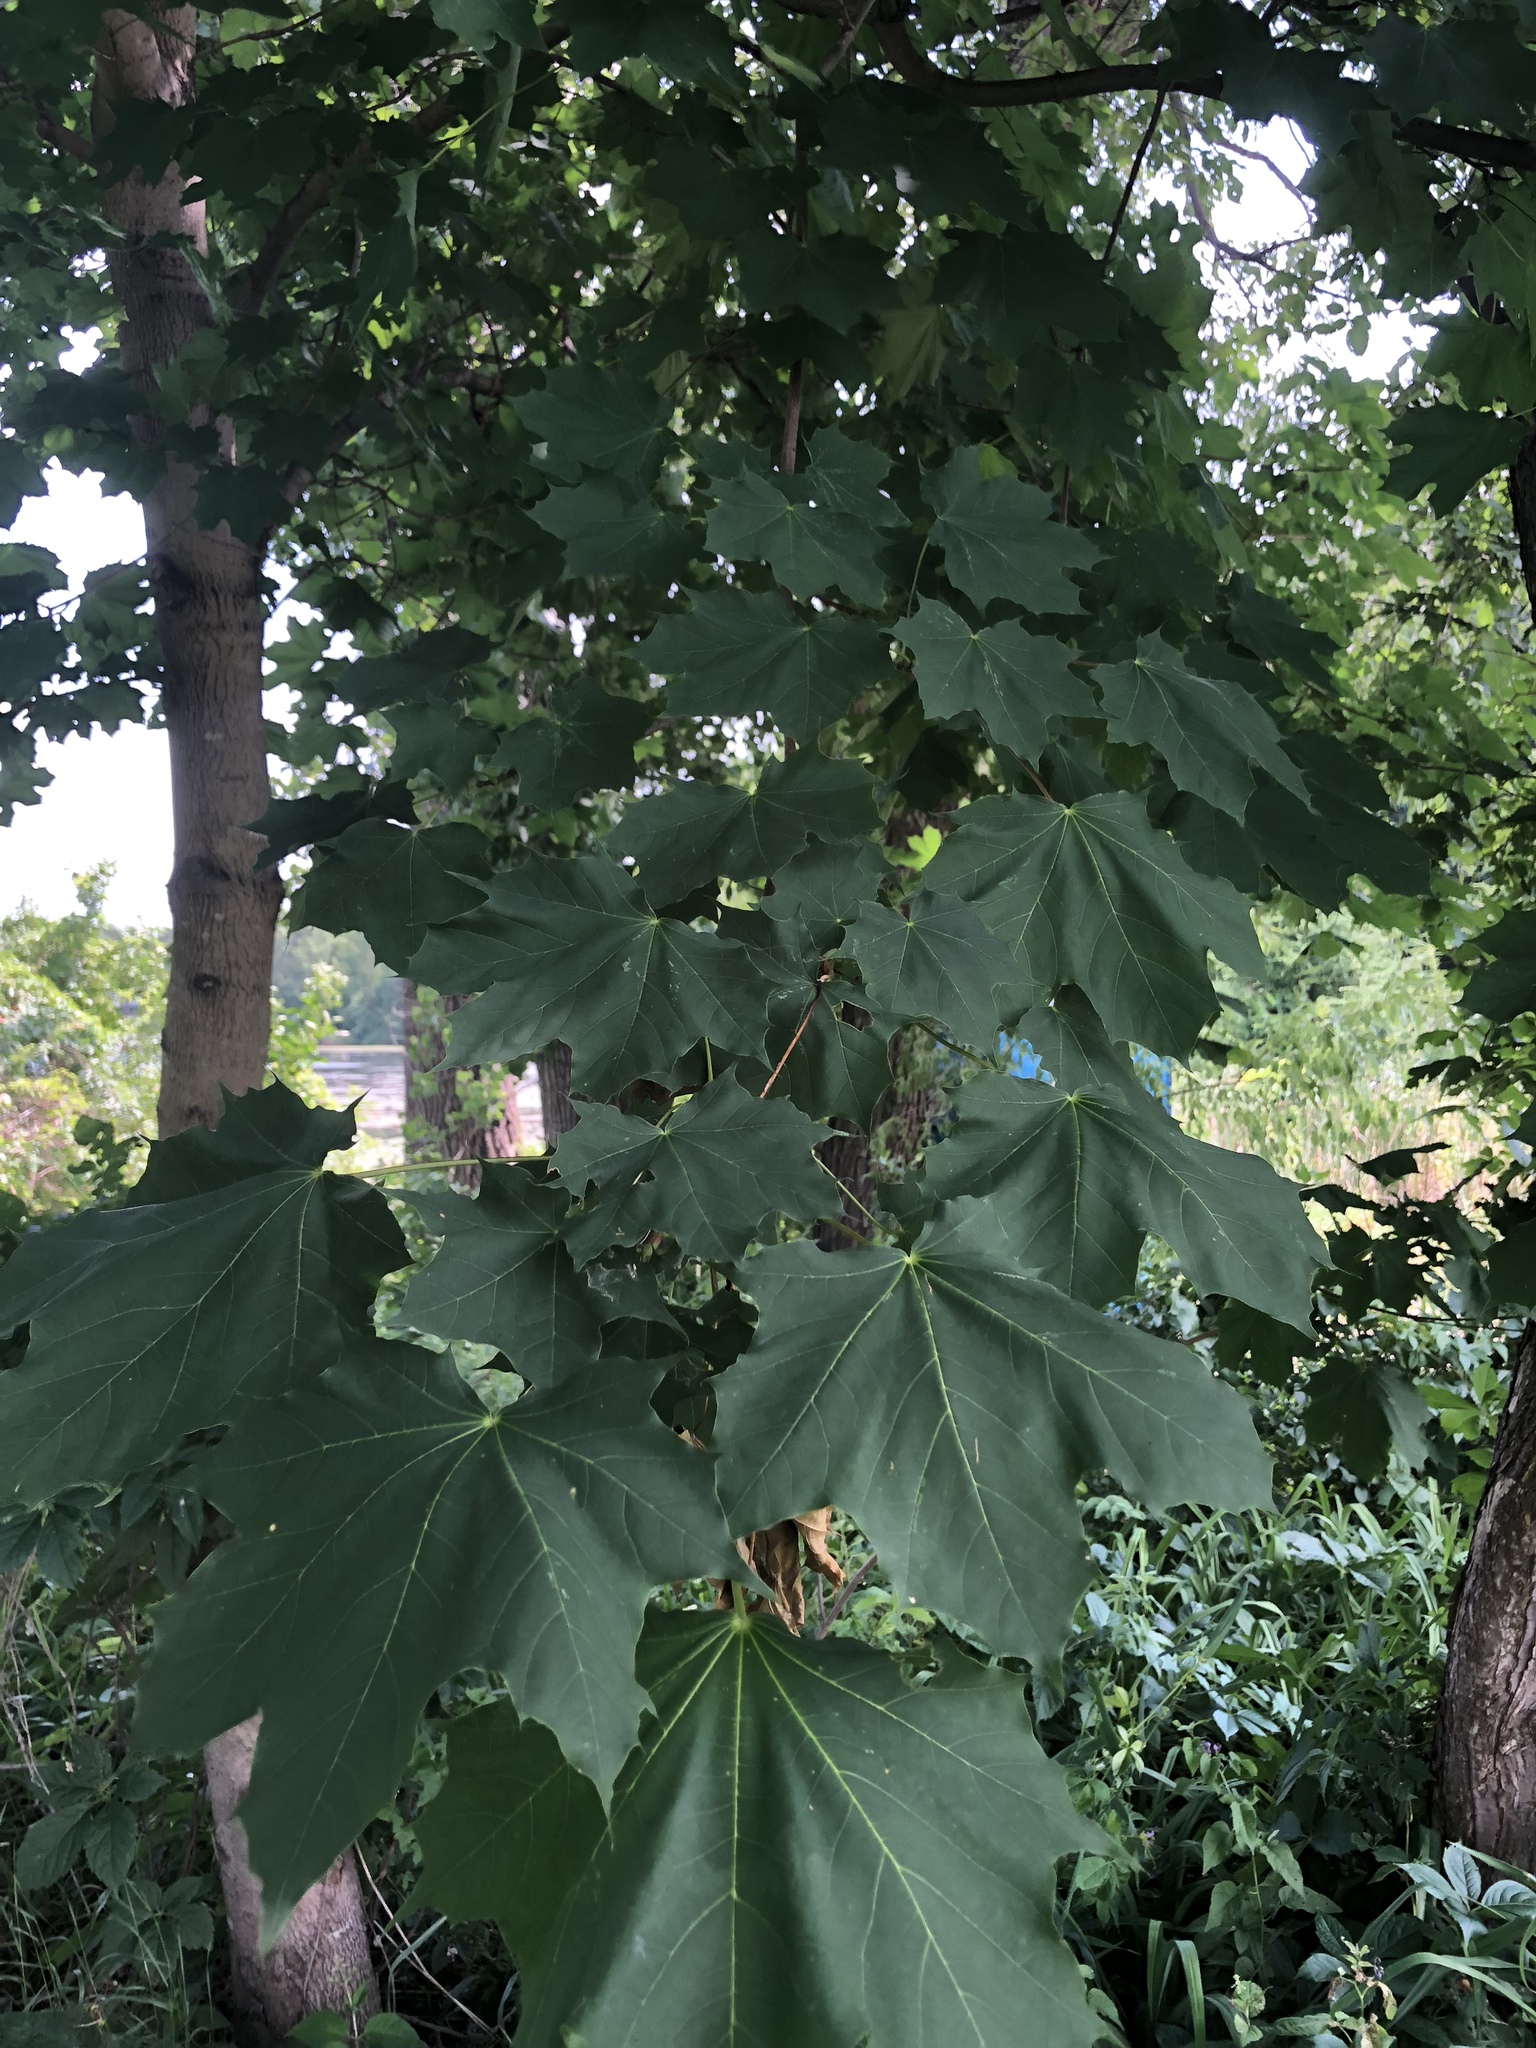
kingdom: Plantae
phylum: Tracheophyta
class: Magnoliopsida
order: Sapindales
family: Sapindaceae
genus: Acer
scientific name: Acer platanoides
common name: Norway maple
